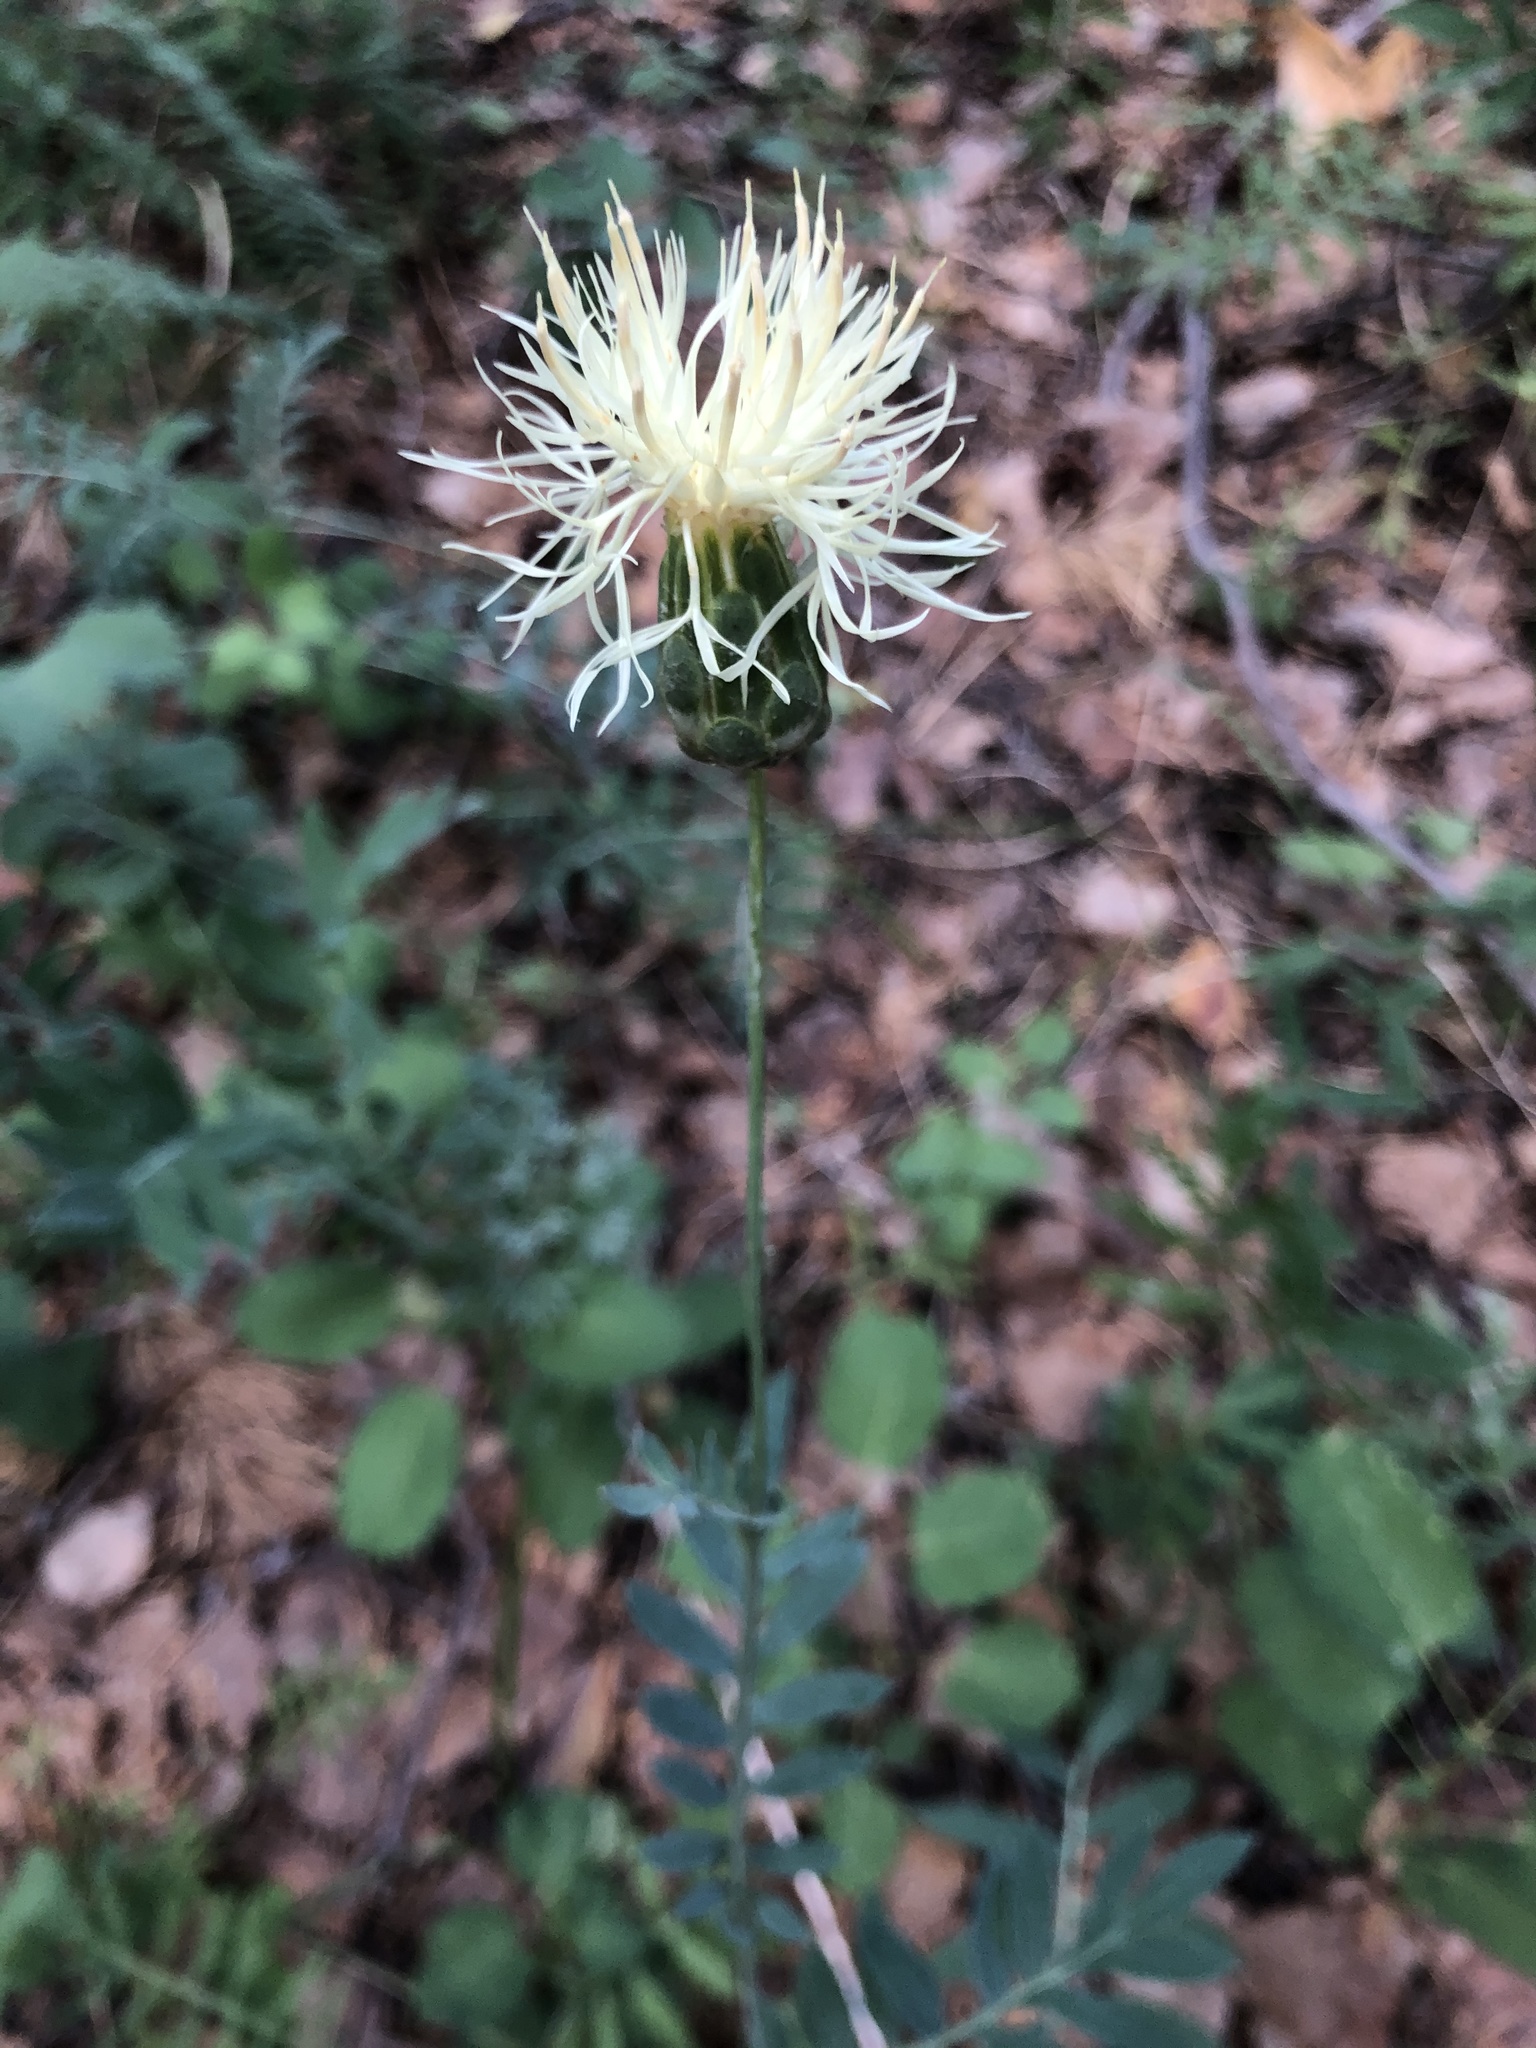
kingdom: Plantae
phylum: Tracheophyta
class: Magnoliopsida
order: Asterales
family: Asteraceae
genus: Rhaponticoides
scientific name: Rhaponticoides ruthenica
